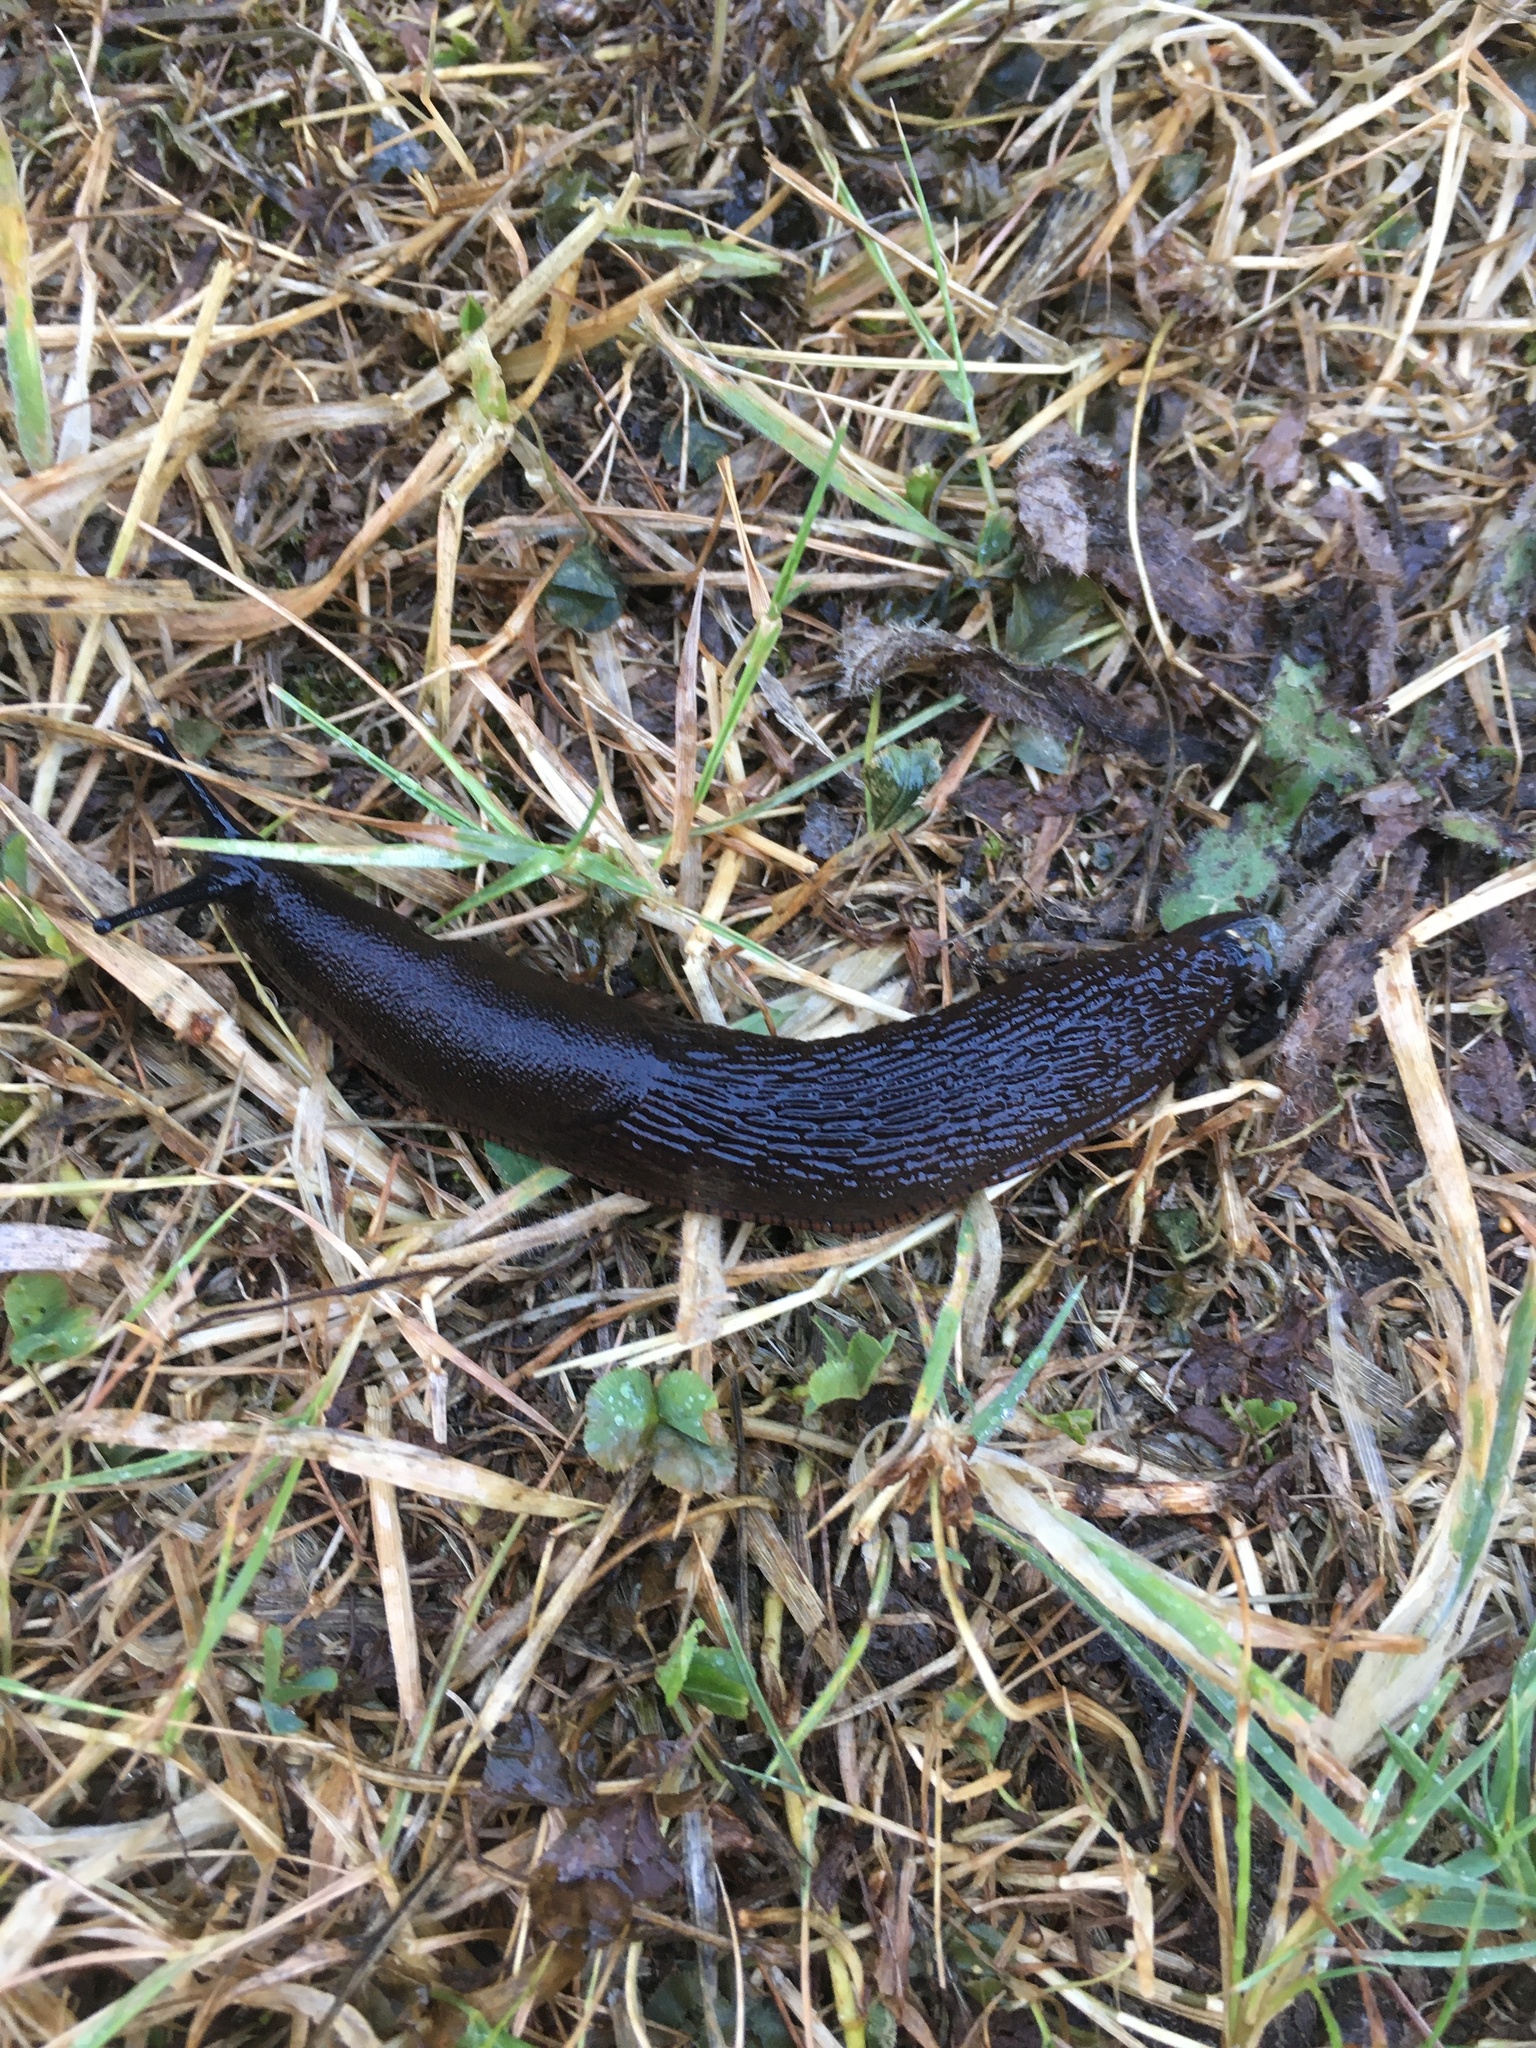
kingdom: Animalia
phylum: Mollusca
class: Gastropoda
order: Stylommatophora
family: Arionidae
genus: Arion
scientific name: Arion
